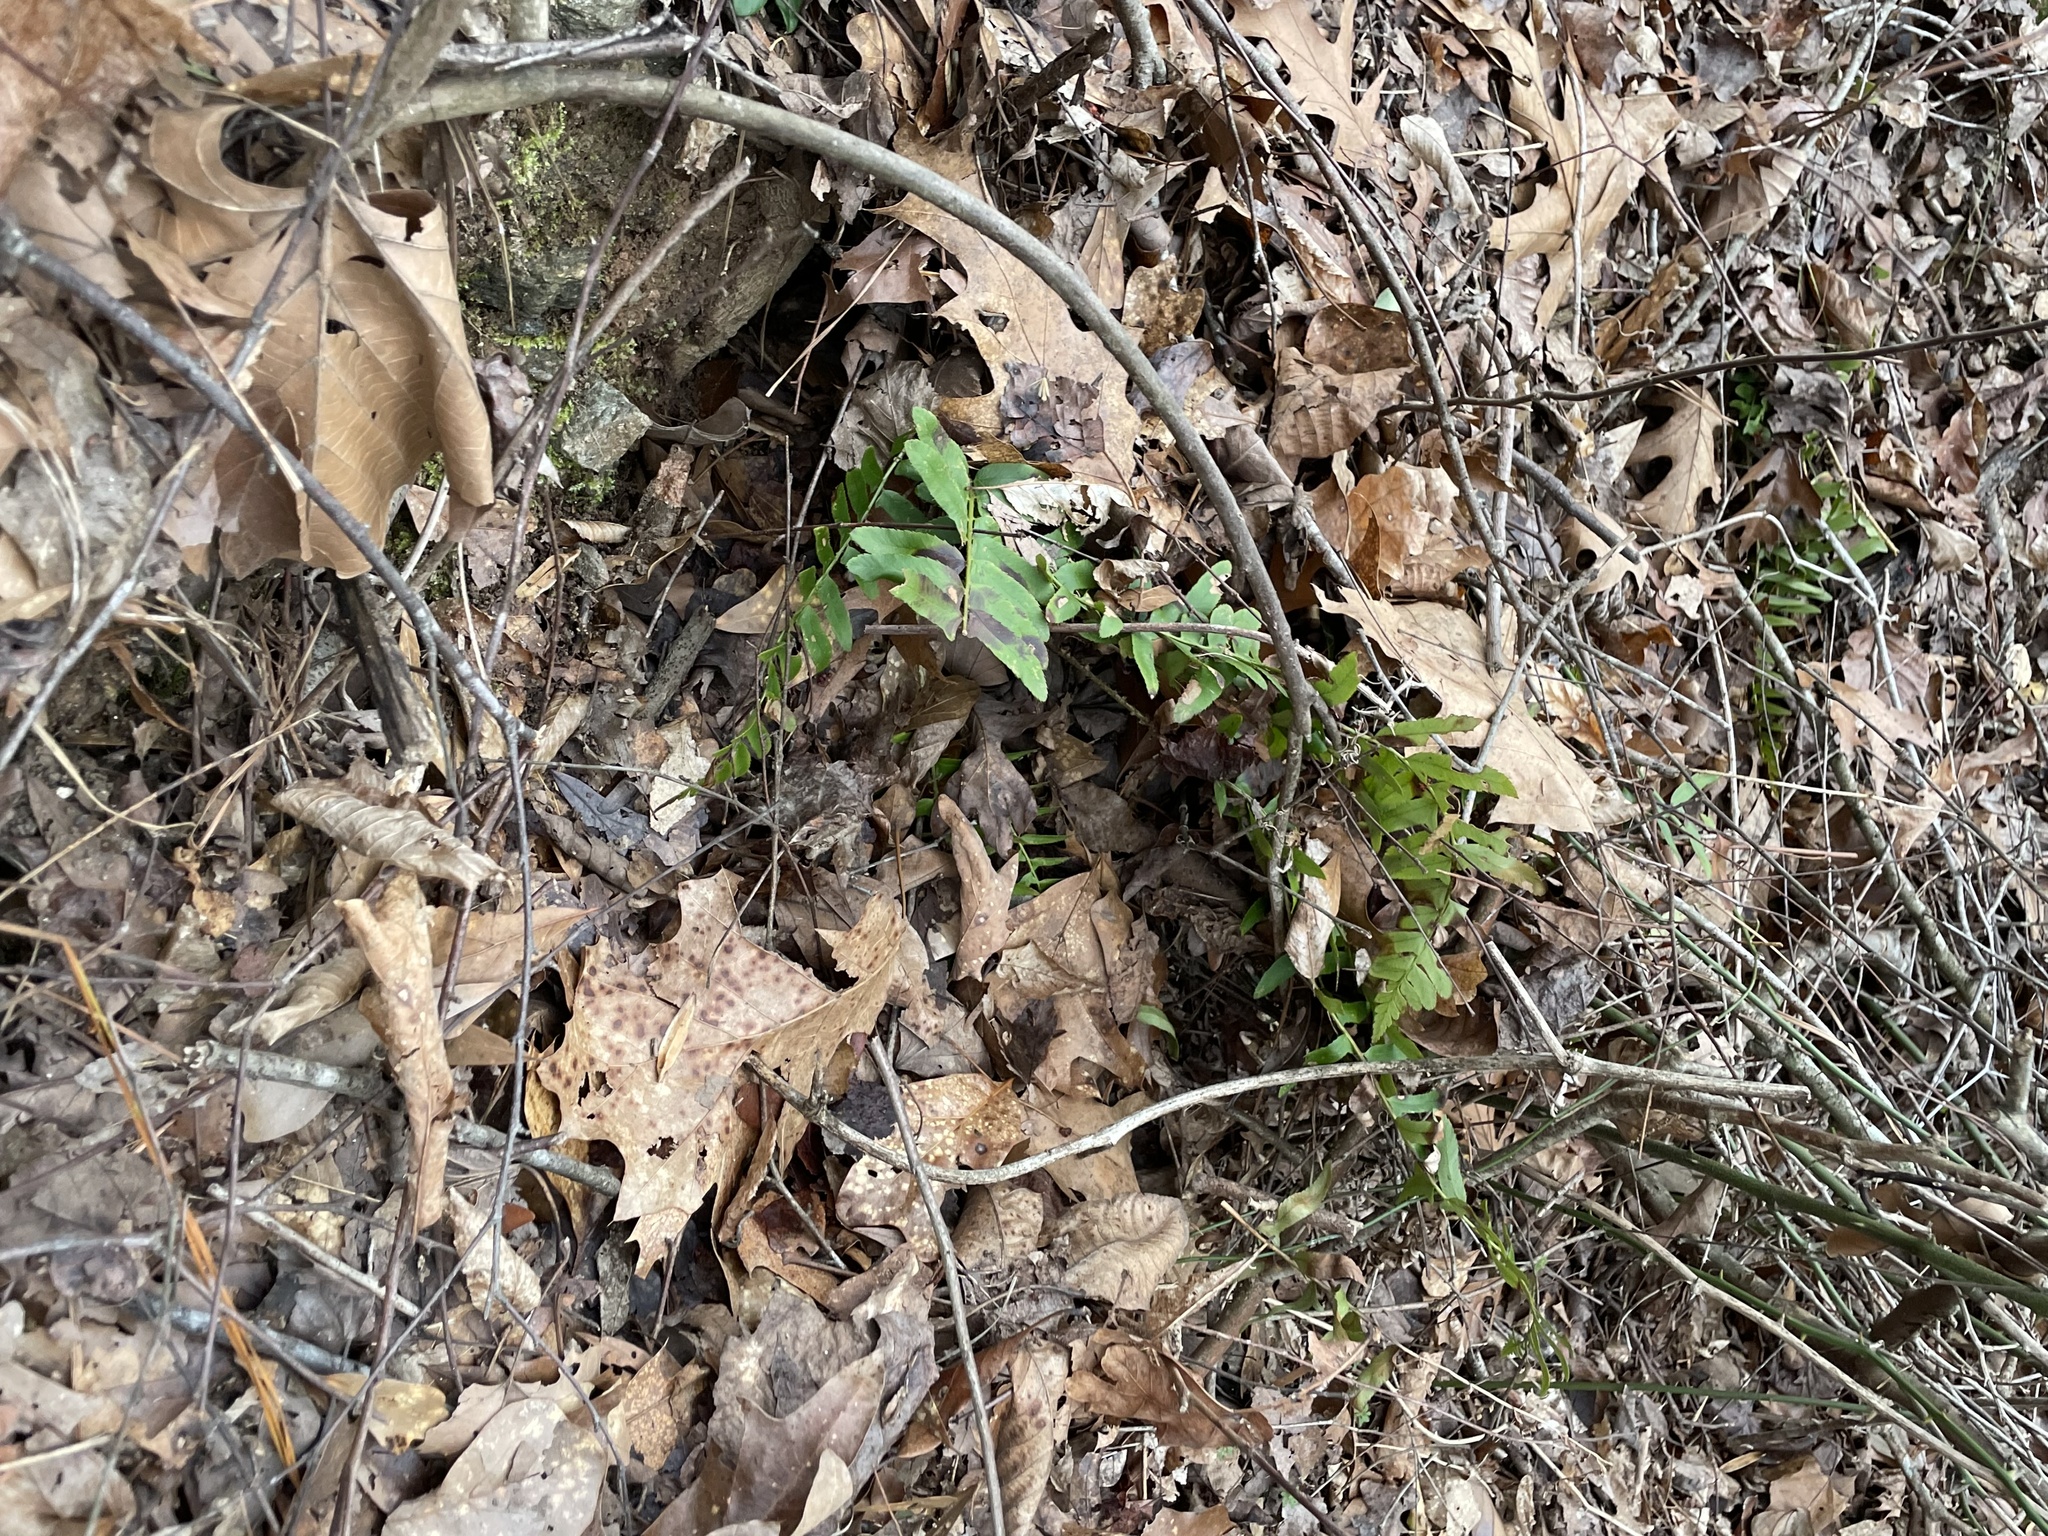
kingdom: Plantae
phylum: Tracheophyta
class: Polypodiopsida
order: Polypodiales
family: Dryopteridaceae
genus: Polystichum
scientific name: Polystichum acrostichoides
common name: Christmas fern
